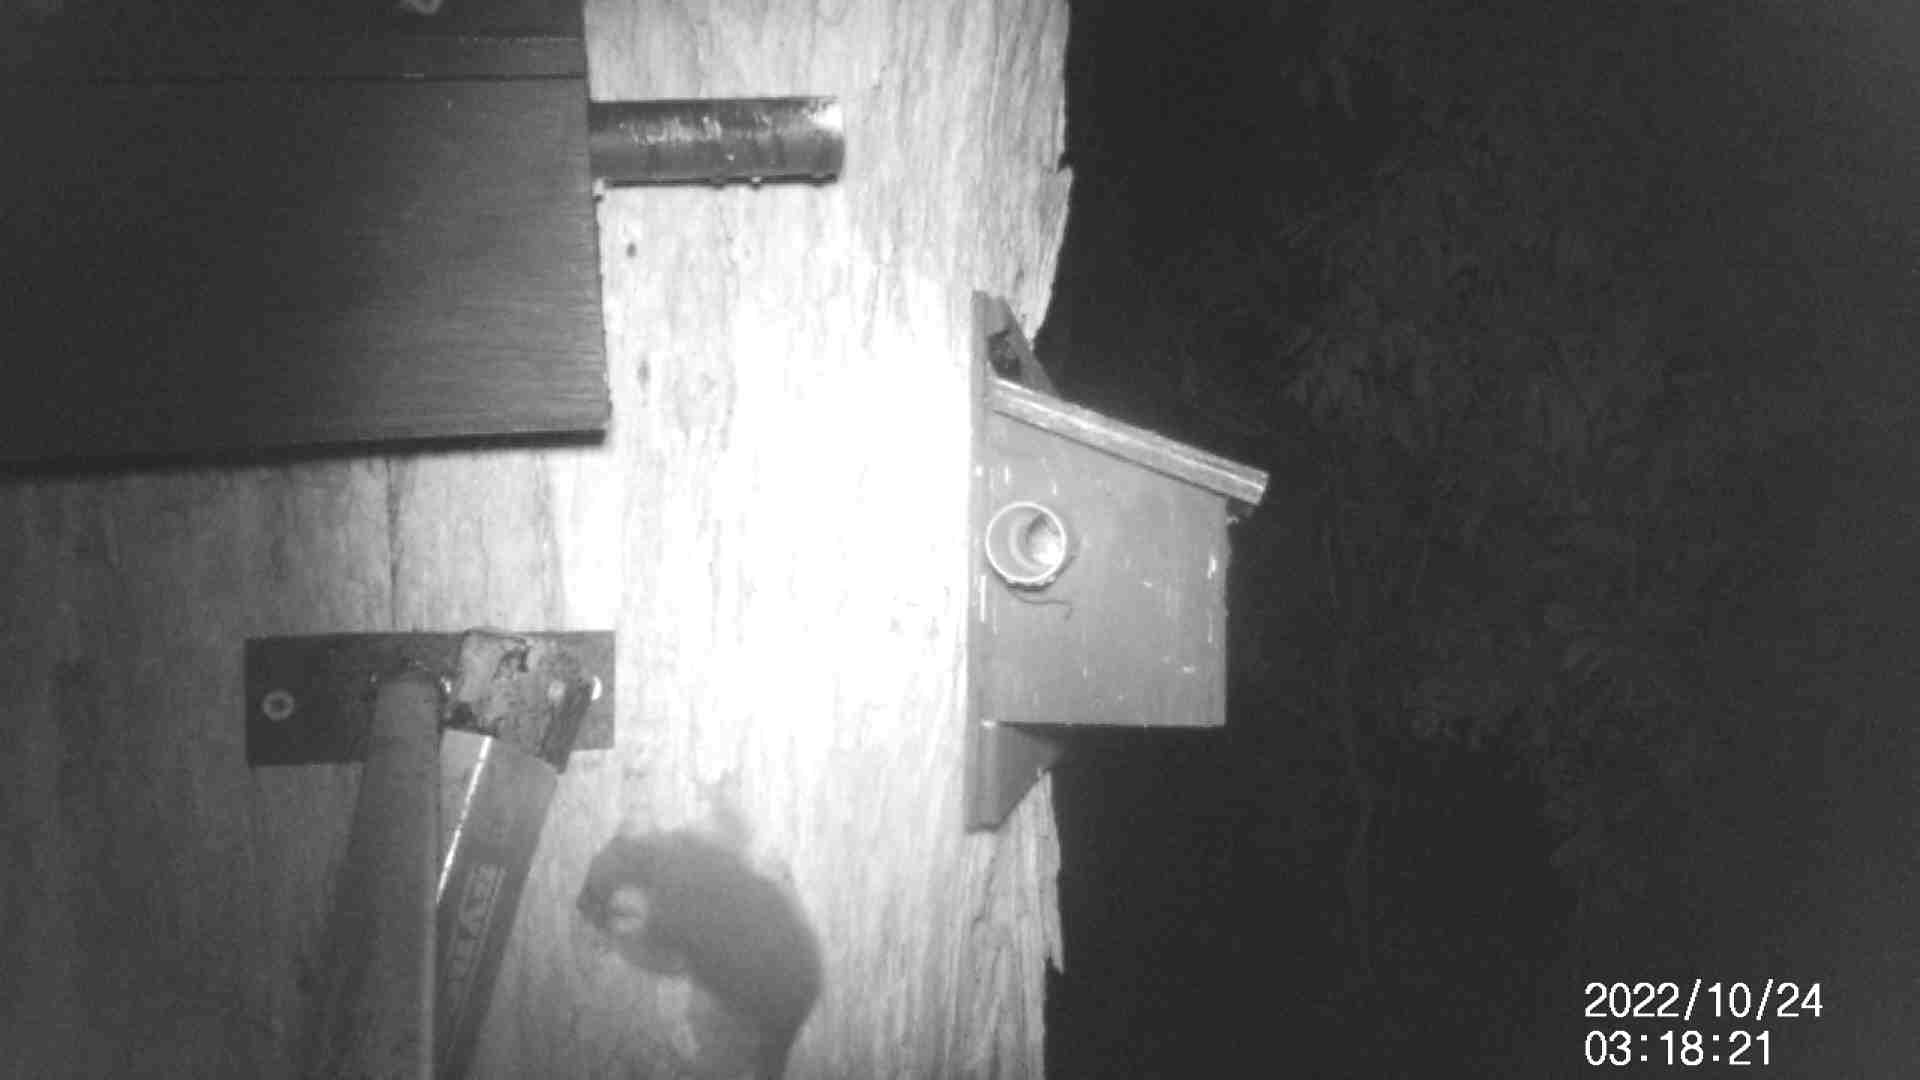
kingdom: Animalia
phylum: Chordata
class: Mammalia
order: Diprotodontia
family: Pseudocheiridae
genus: Pseudocheirus
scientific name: Pseudocheirus peregrinus
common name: Common ringtail possum
